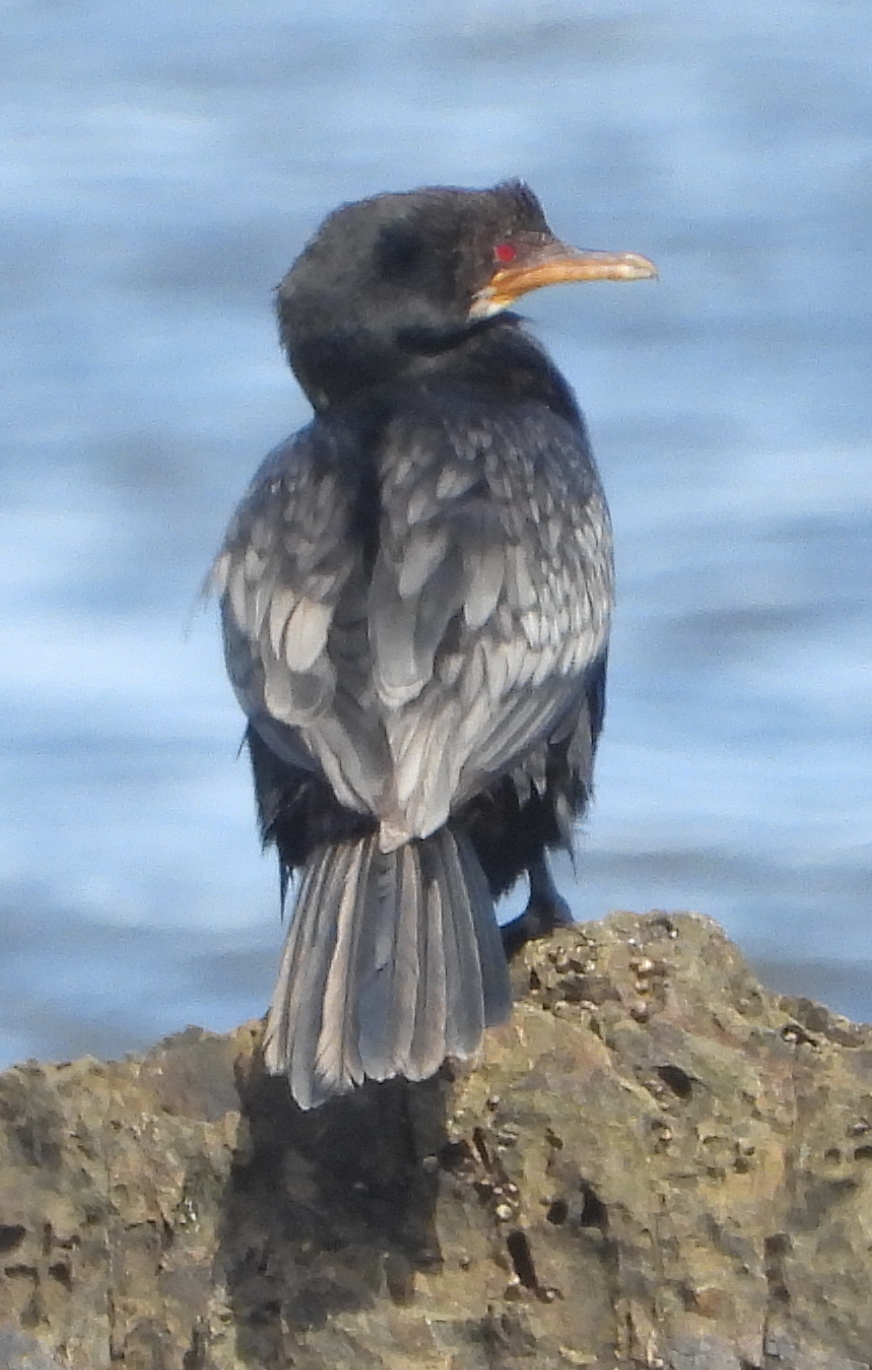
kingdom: Animalia
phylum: Chordata
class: Aves
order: Suliformes
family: Phalacrocoracidae
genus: Microcarbo
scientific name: Microcarbo africanus
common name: Long-tailed cormorant
